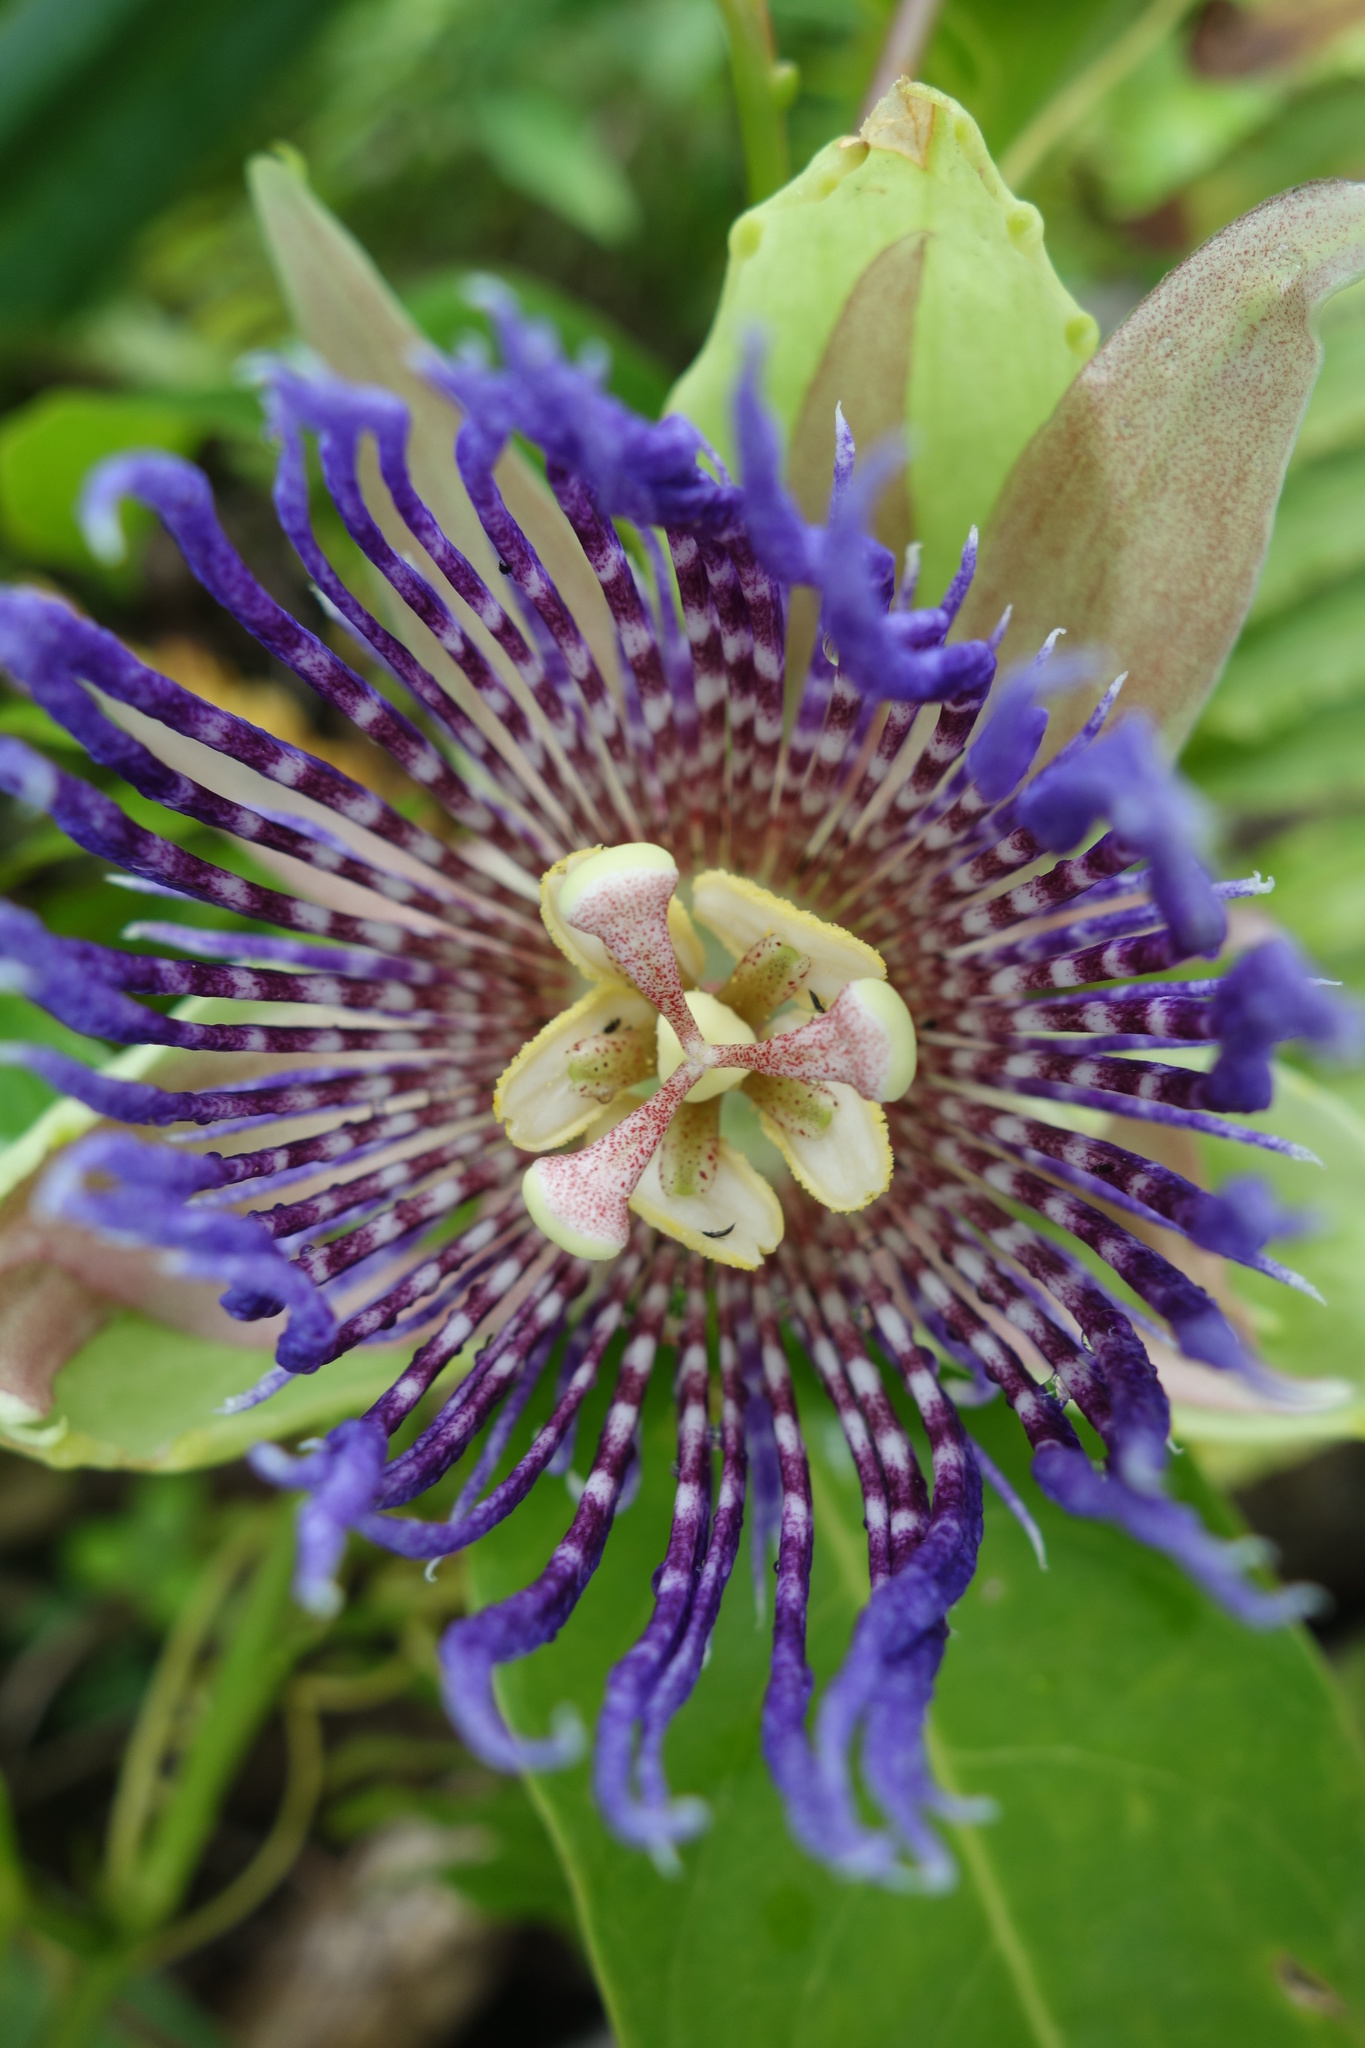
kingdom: Plantae
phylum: Tracheophyta
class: Magnoliopsida
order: Malpighiales
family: Passifloraceae
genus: Passiflora
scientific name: Passiflora laurifolia
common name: Bell apple
